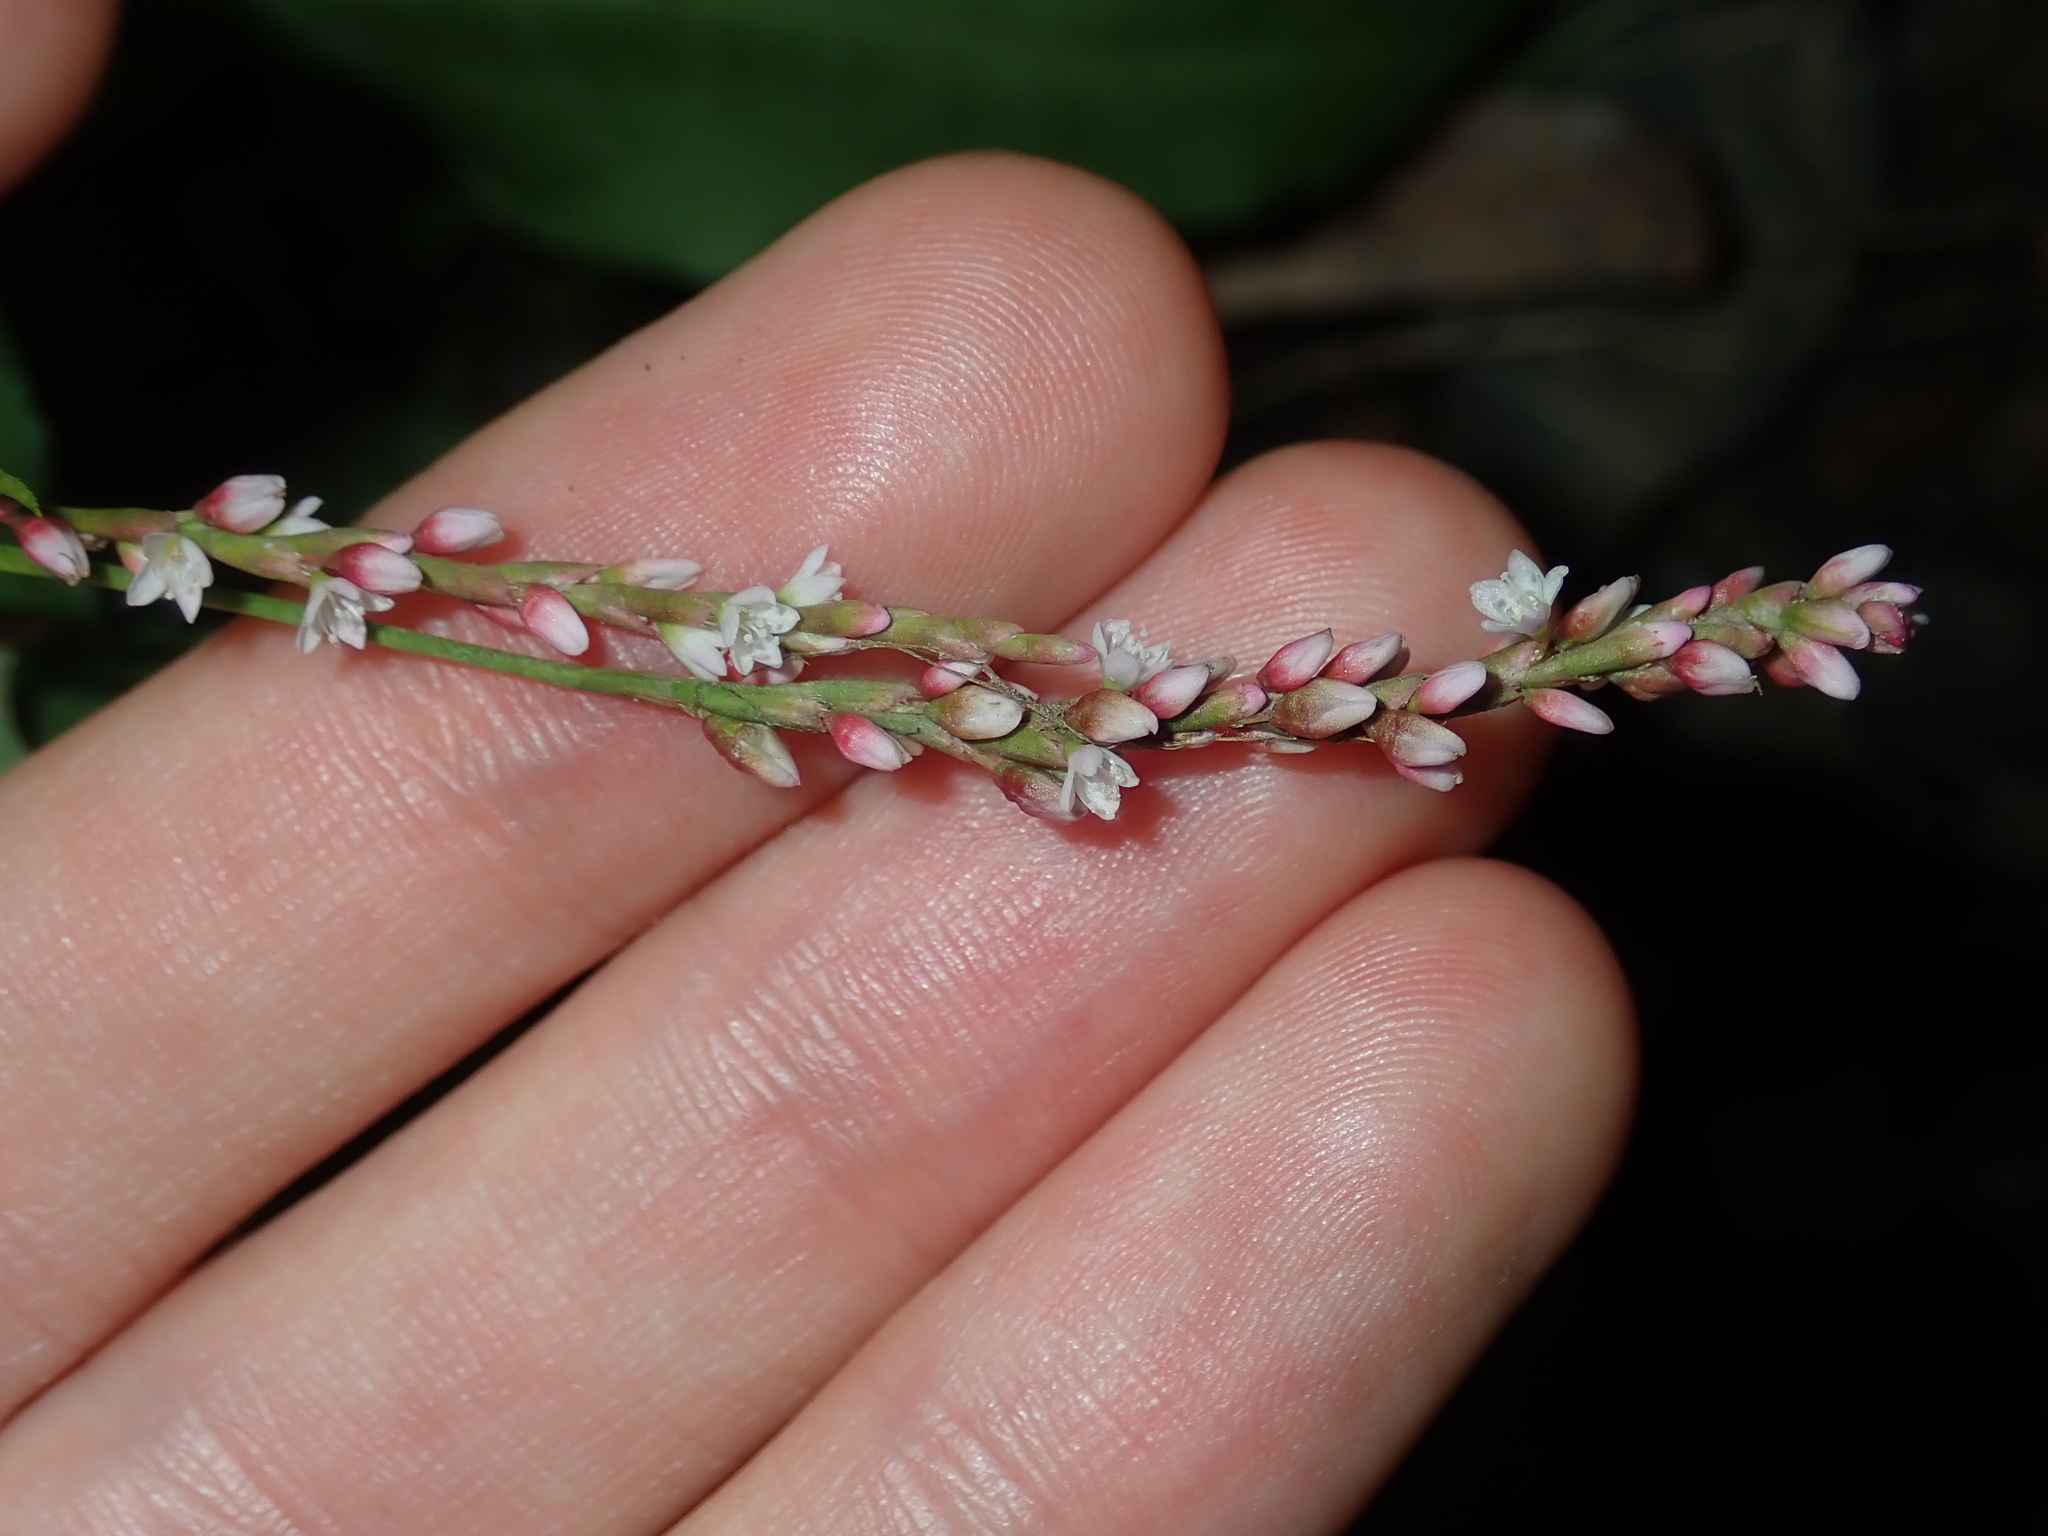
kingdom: Plantae
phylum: Tracheophyta
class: Magnoliopsida
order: Caryophyllales
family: Polygonaceae
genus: Persicaria
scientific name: Persicaria decipiens
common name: Willow-weed
